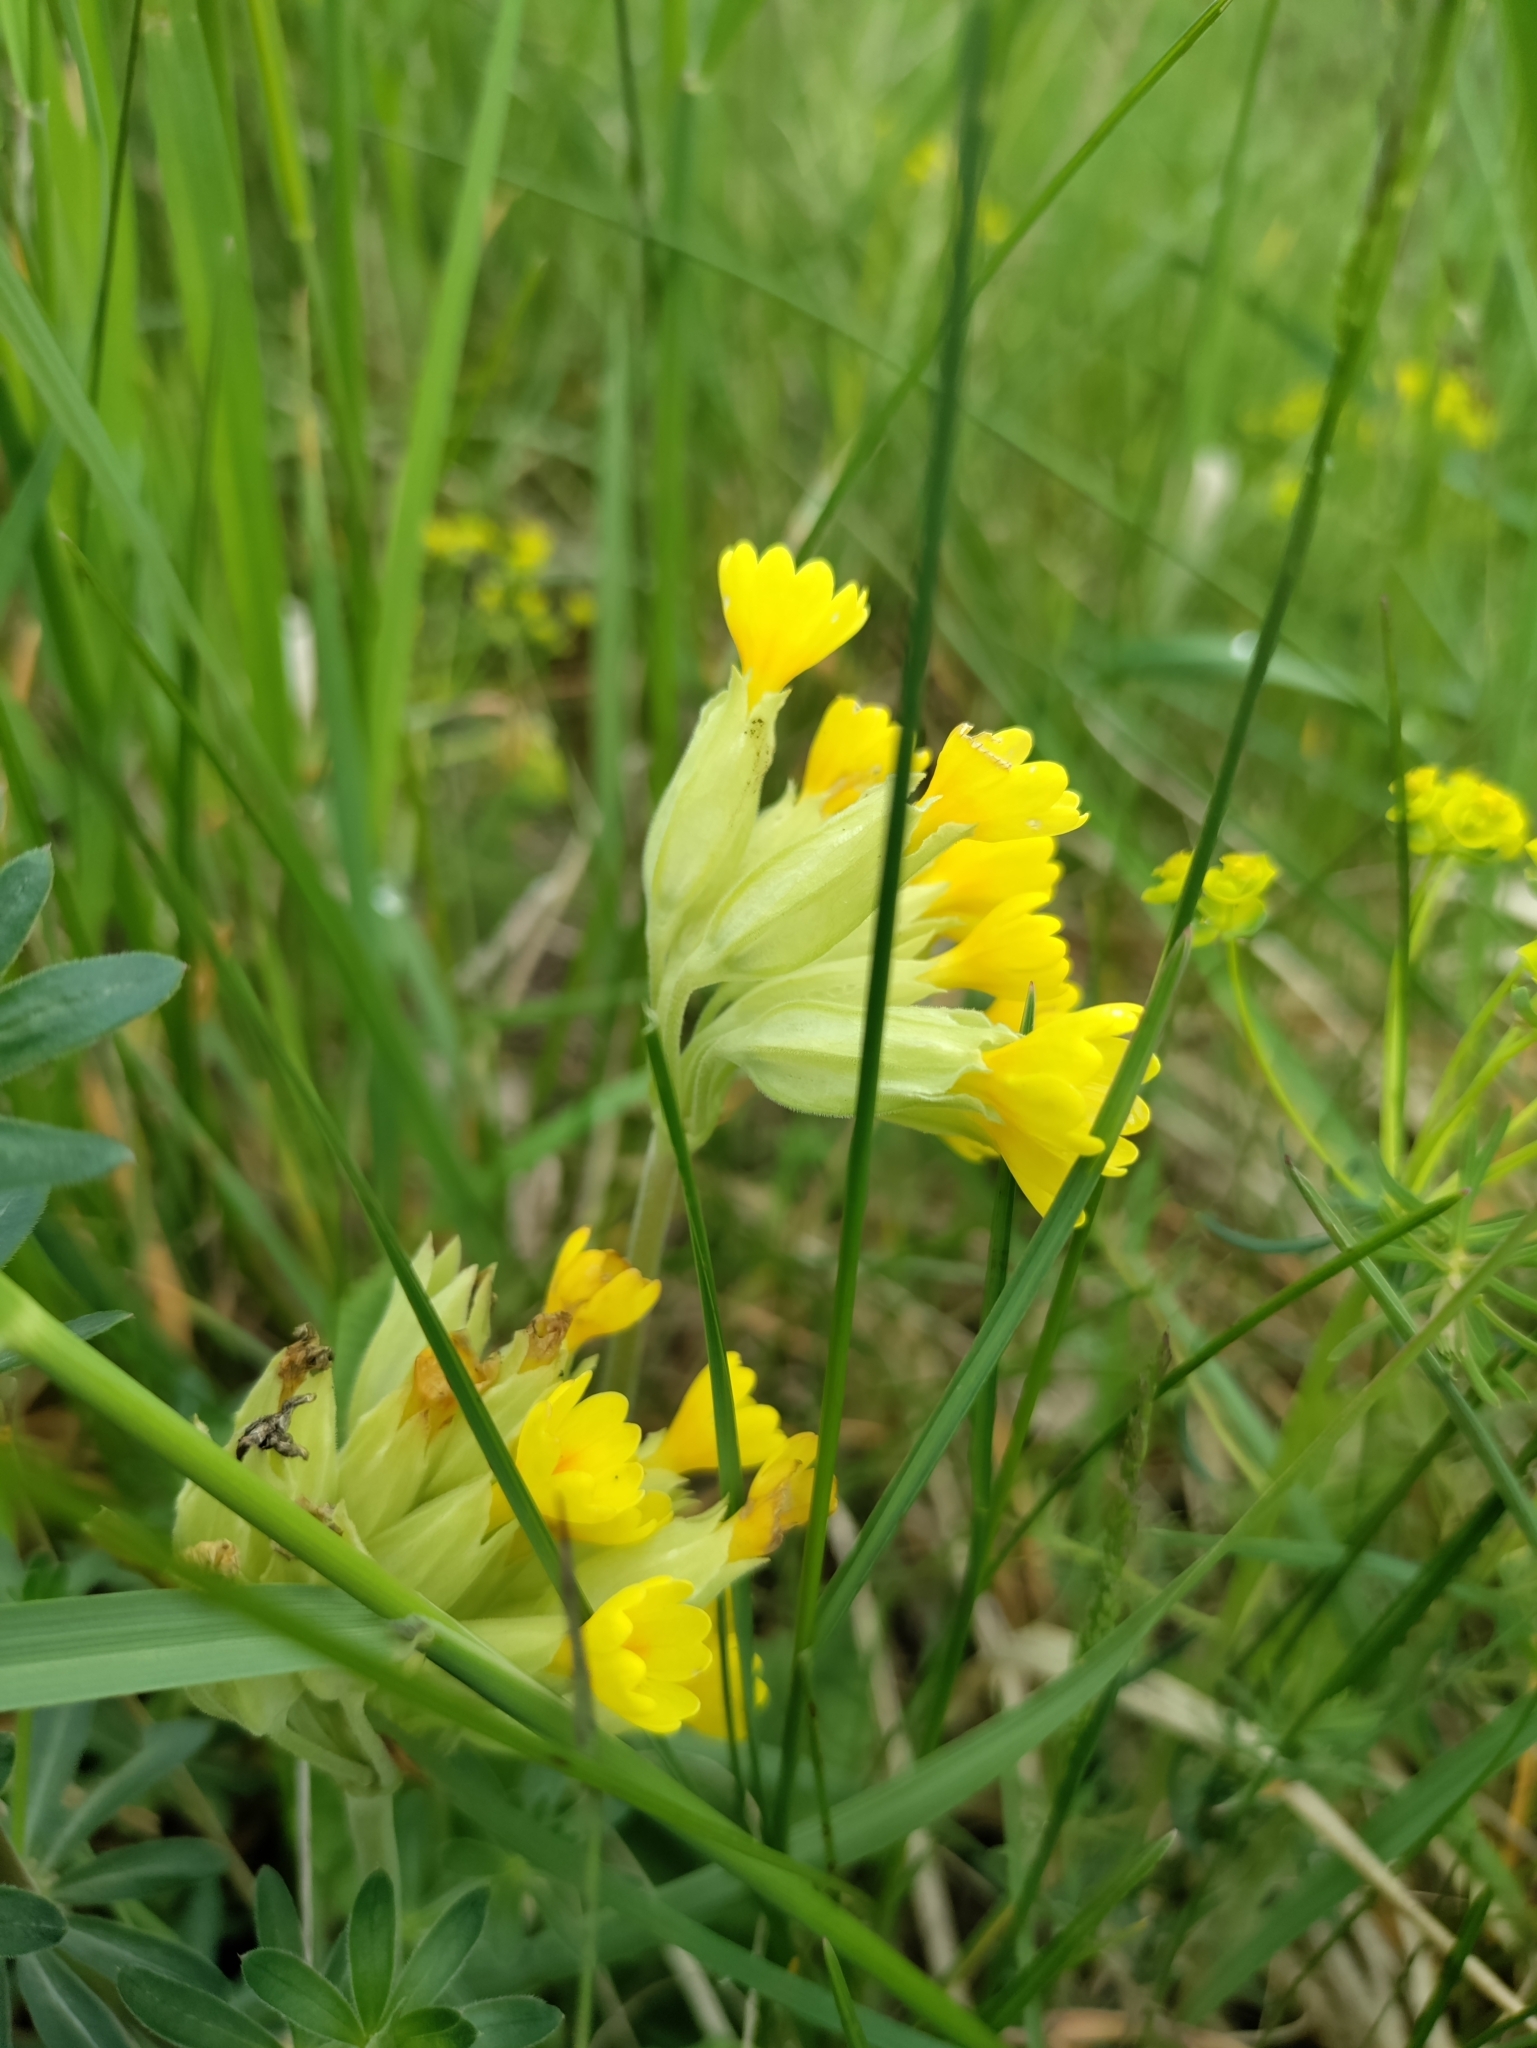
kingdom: Plantae
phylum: Tracheophyta
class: Magnoliopsida
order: Ericales
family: Primulaceae
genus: Primula
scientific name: Primula veris
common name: Cowslip
